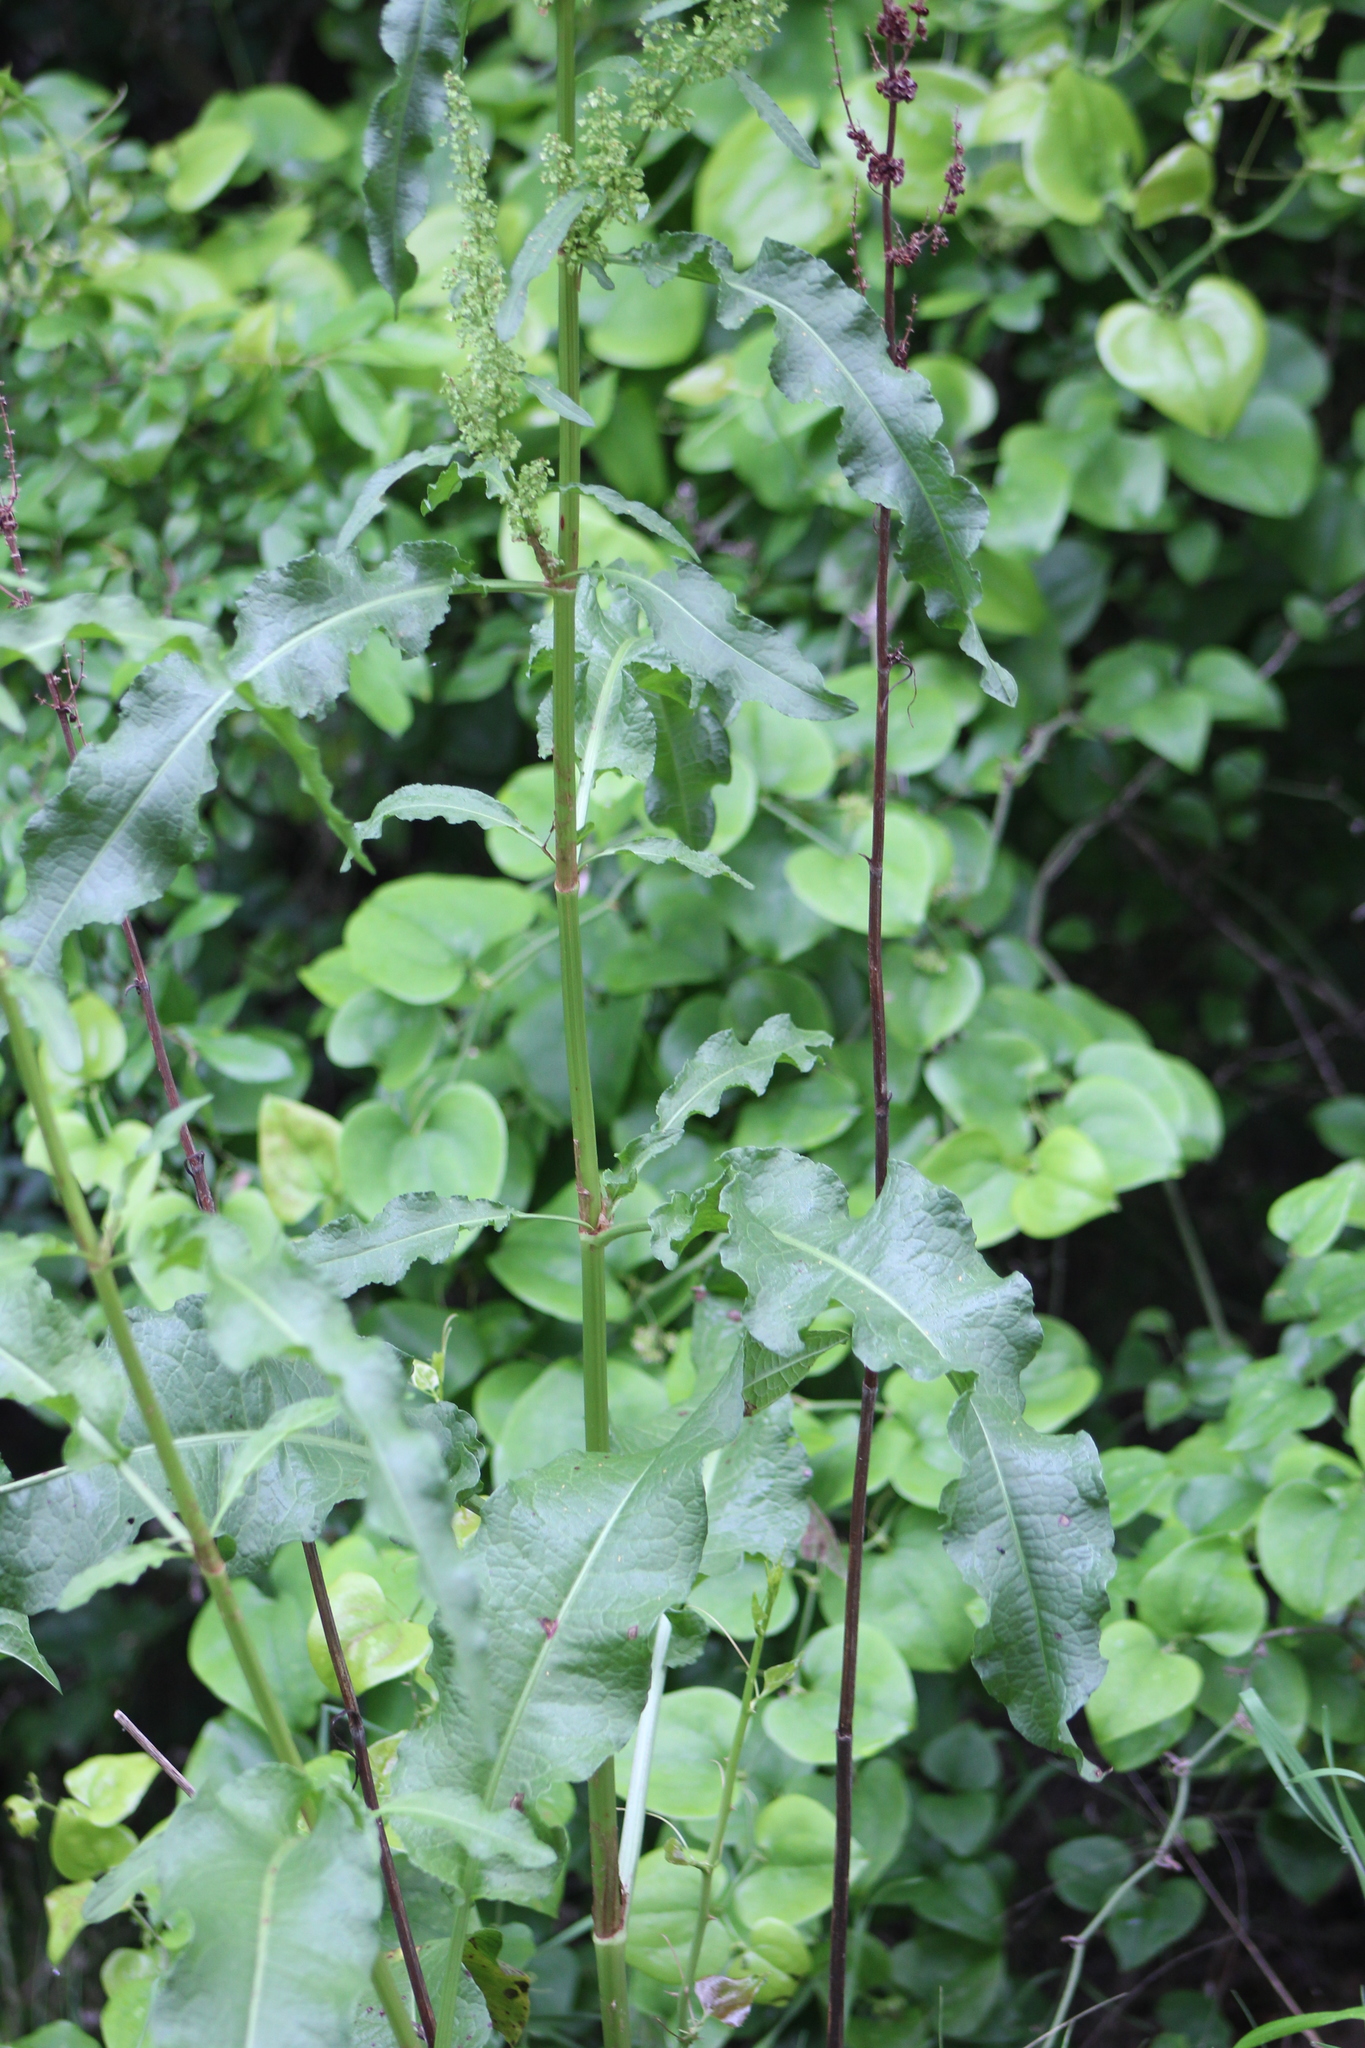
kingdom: Plantae
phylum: Tracheophyta
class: Magnoliopsida
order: Caryophyllales
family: Polygonaceae
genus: Rumex
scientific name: Rumex crispus
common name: Curled dock
